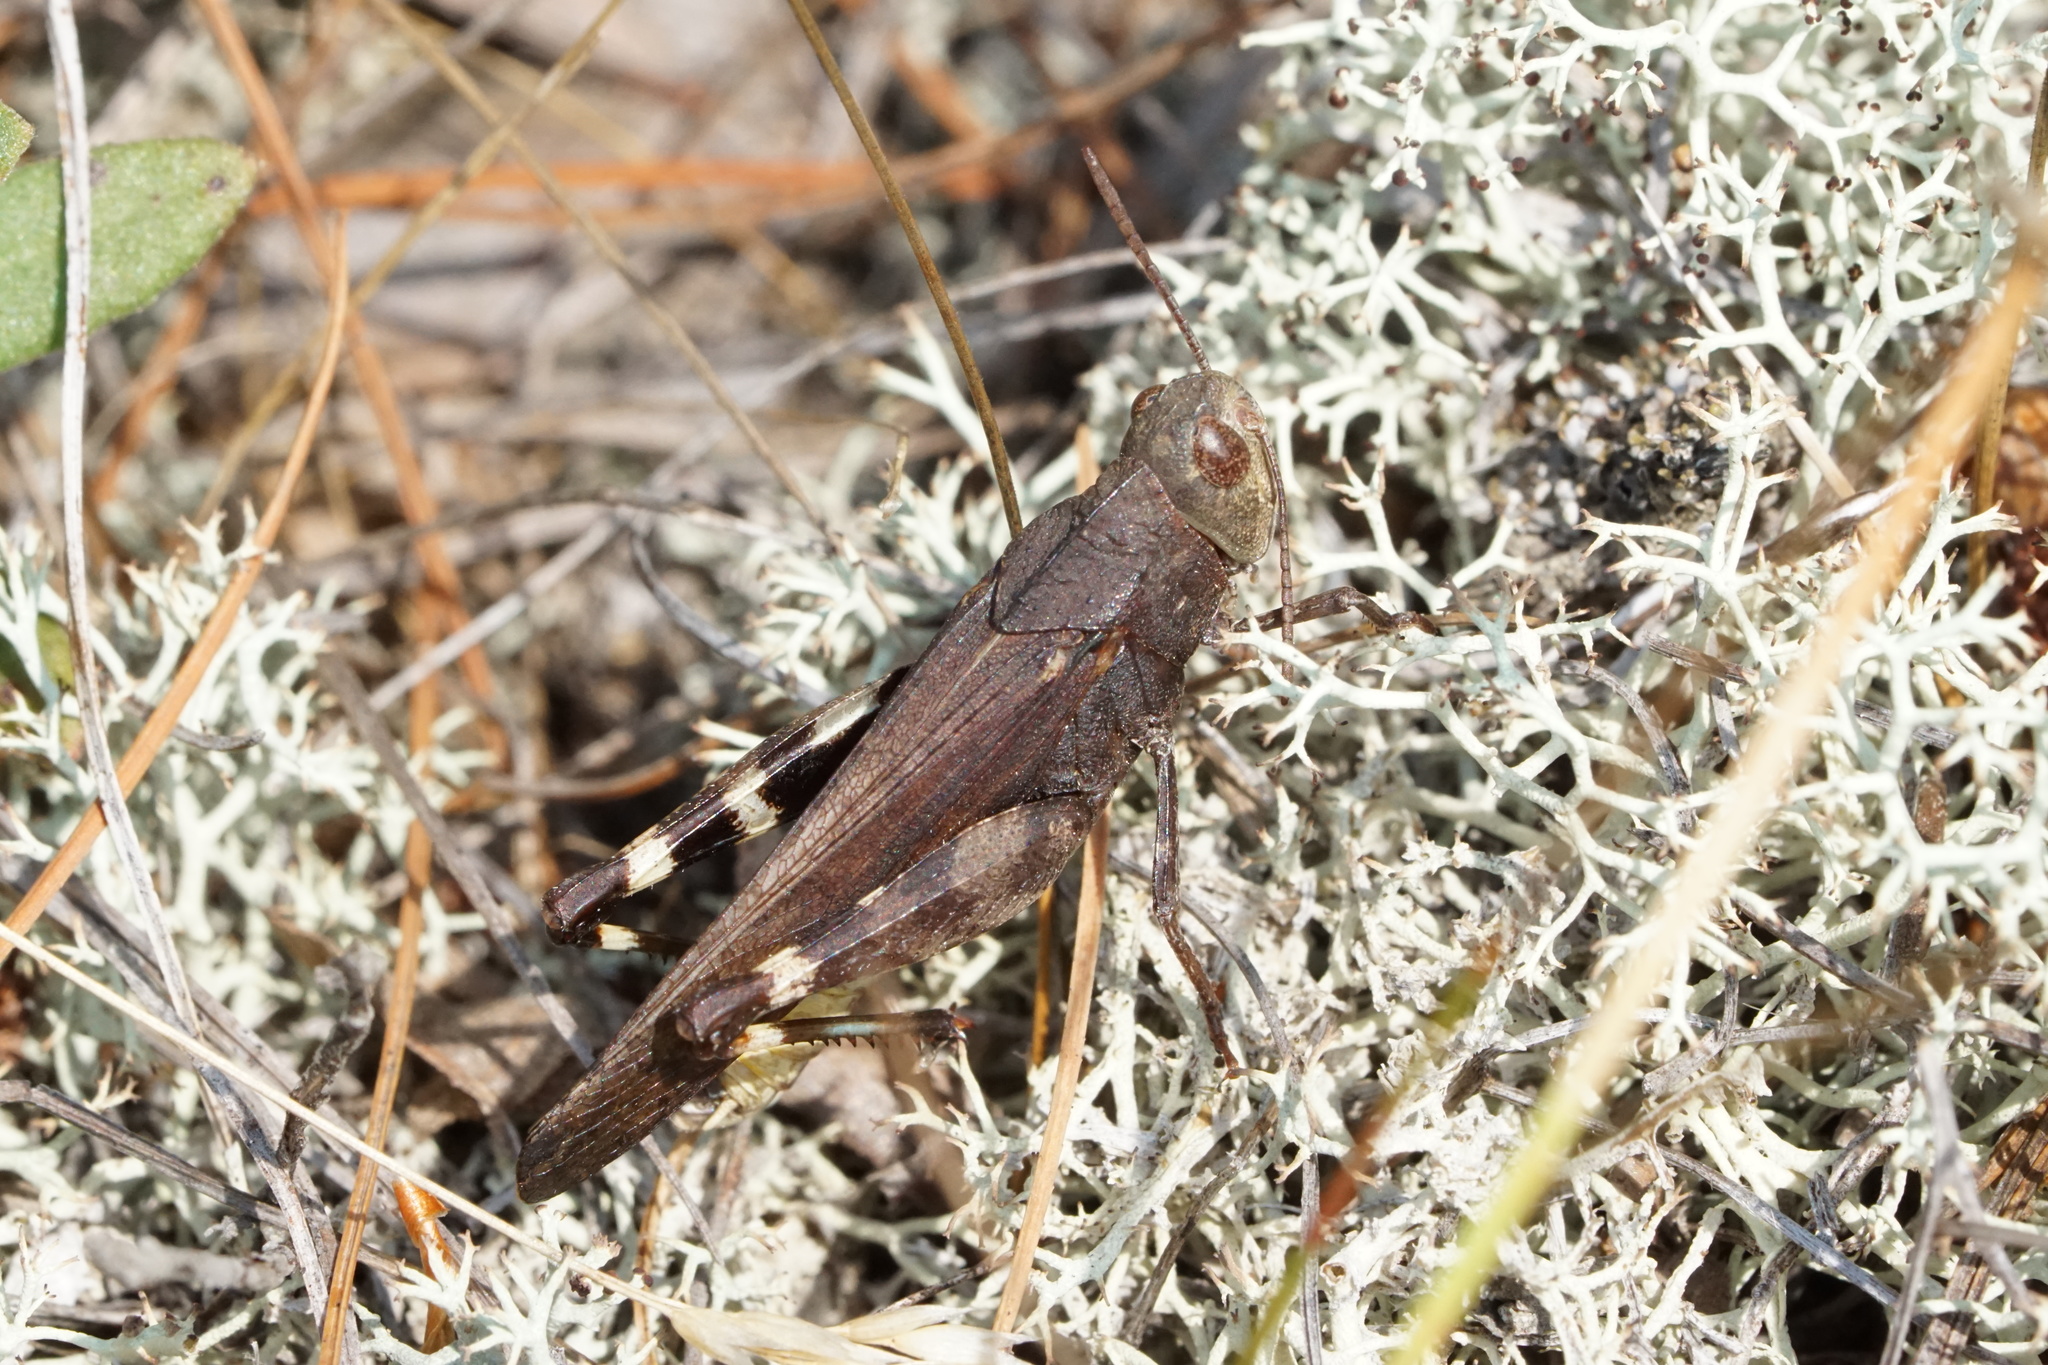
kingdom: Animalia
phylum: Arthropoda
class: Insecta
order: Orthoptera
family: Acrididae
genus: Arphia
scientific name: Arphia sulphurea
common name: Spring yellow-winged locust
